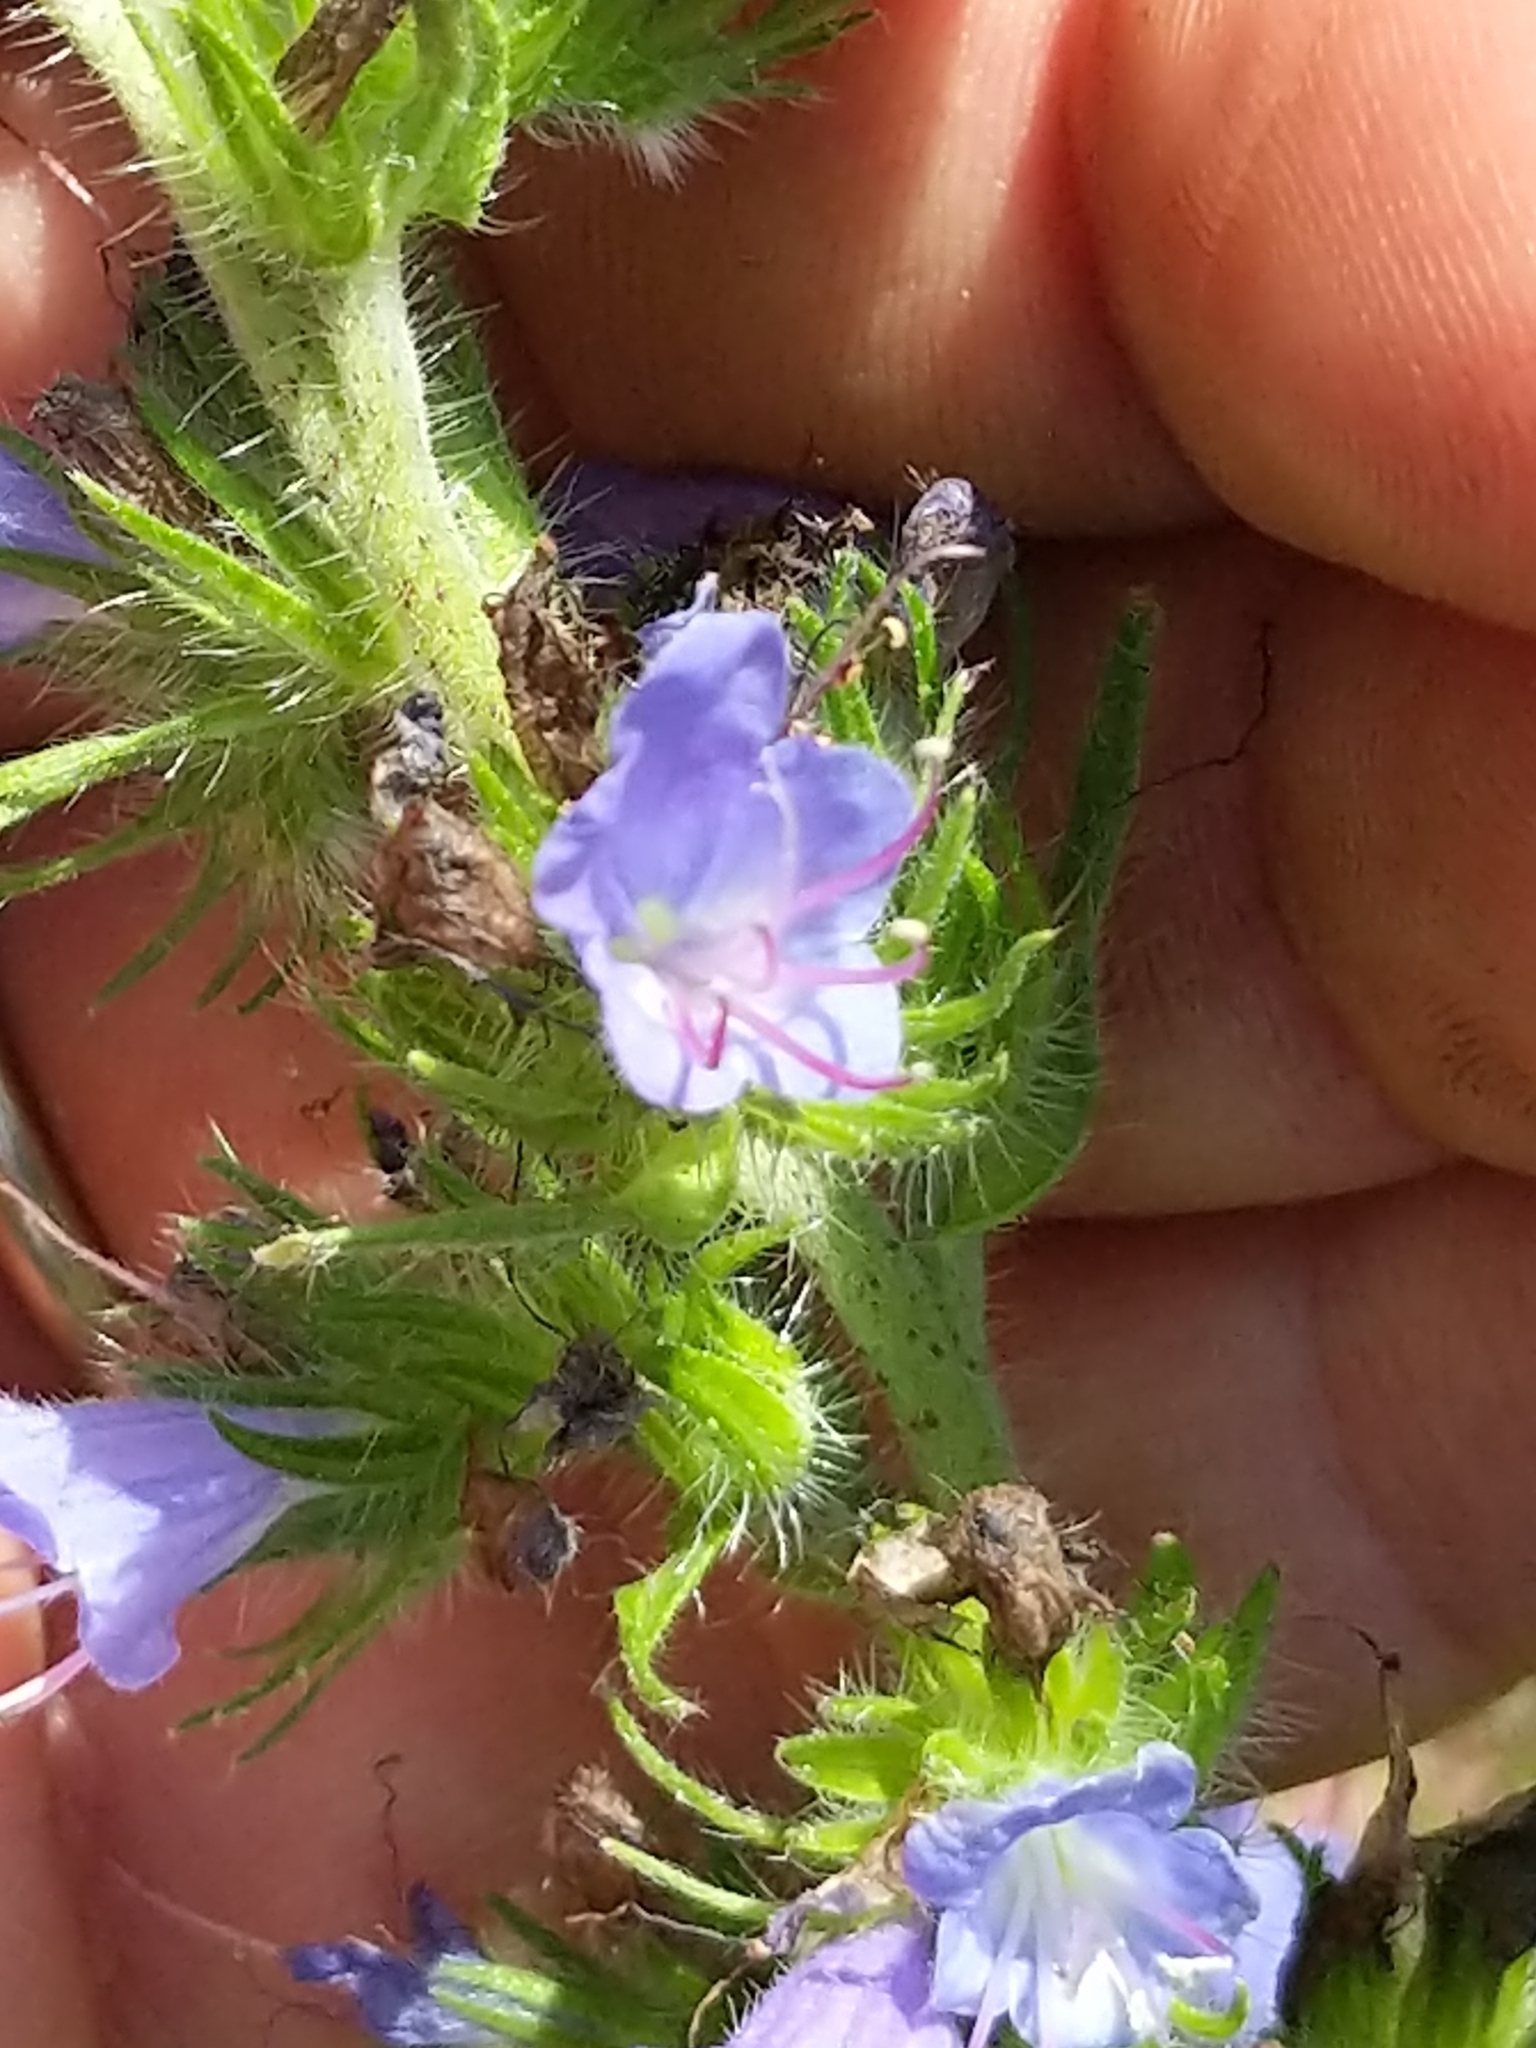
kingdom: Plantae
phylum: Tracheophyta
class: Magnoliopsida
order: Boraginales
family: Boraginaceae
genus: Echium
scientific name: Echium vulgare
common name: Common viper's bugloss
